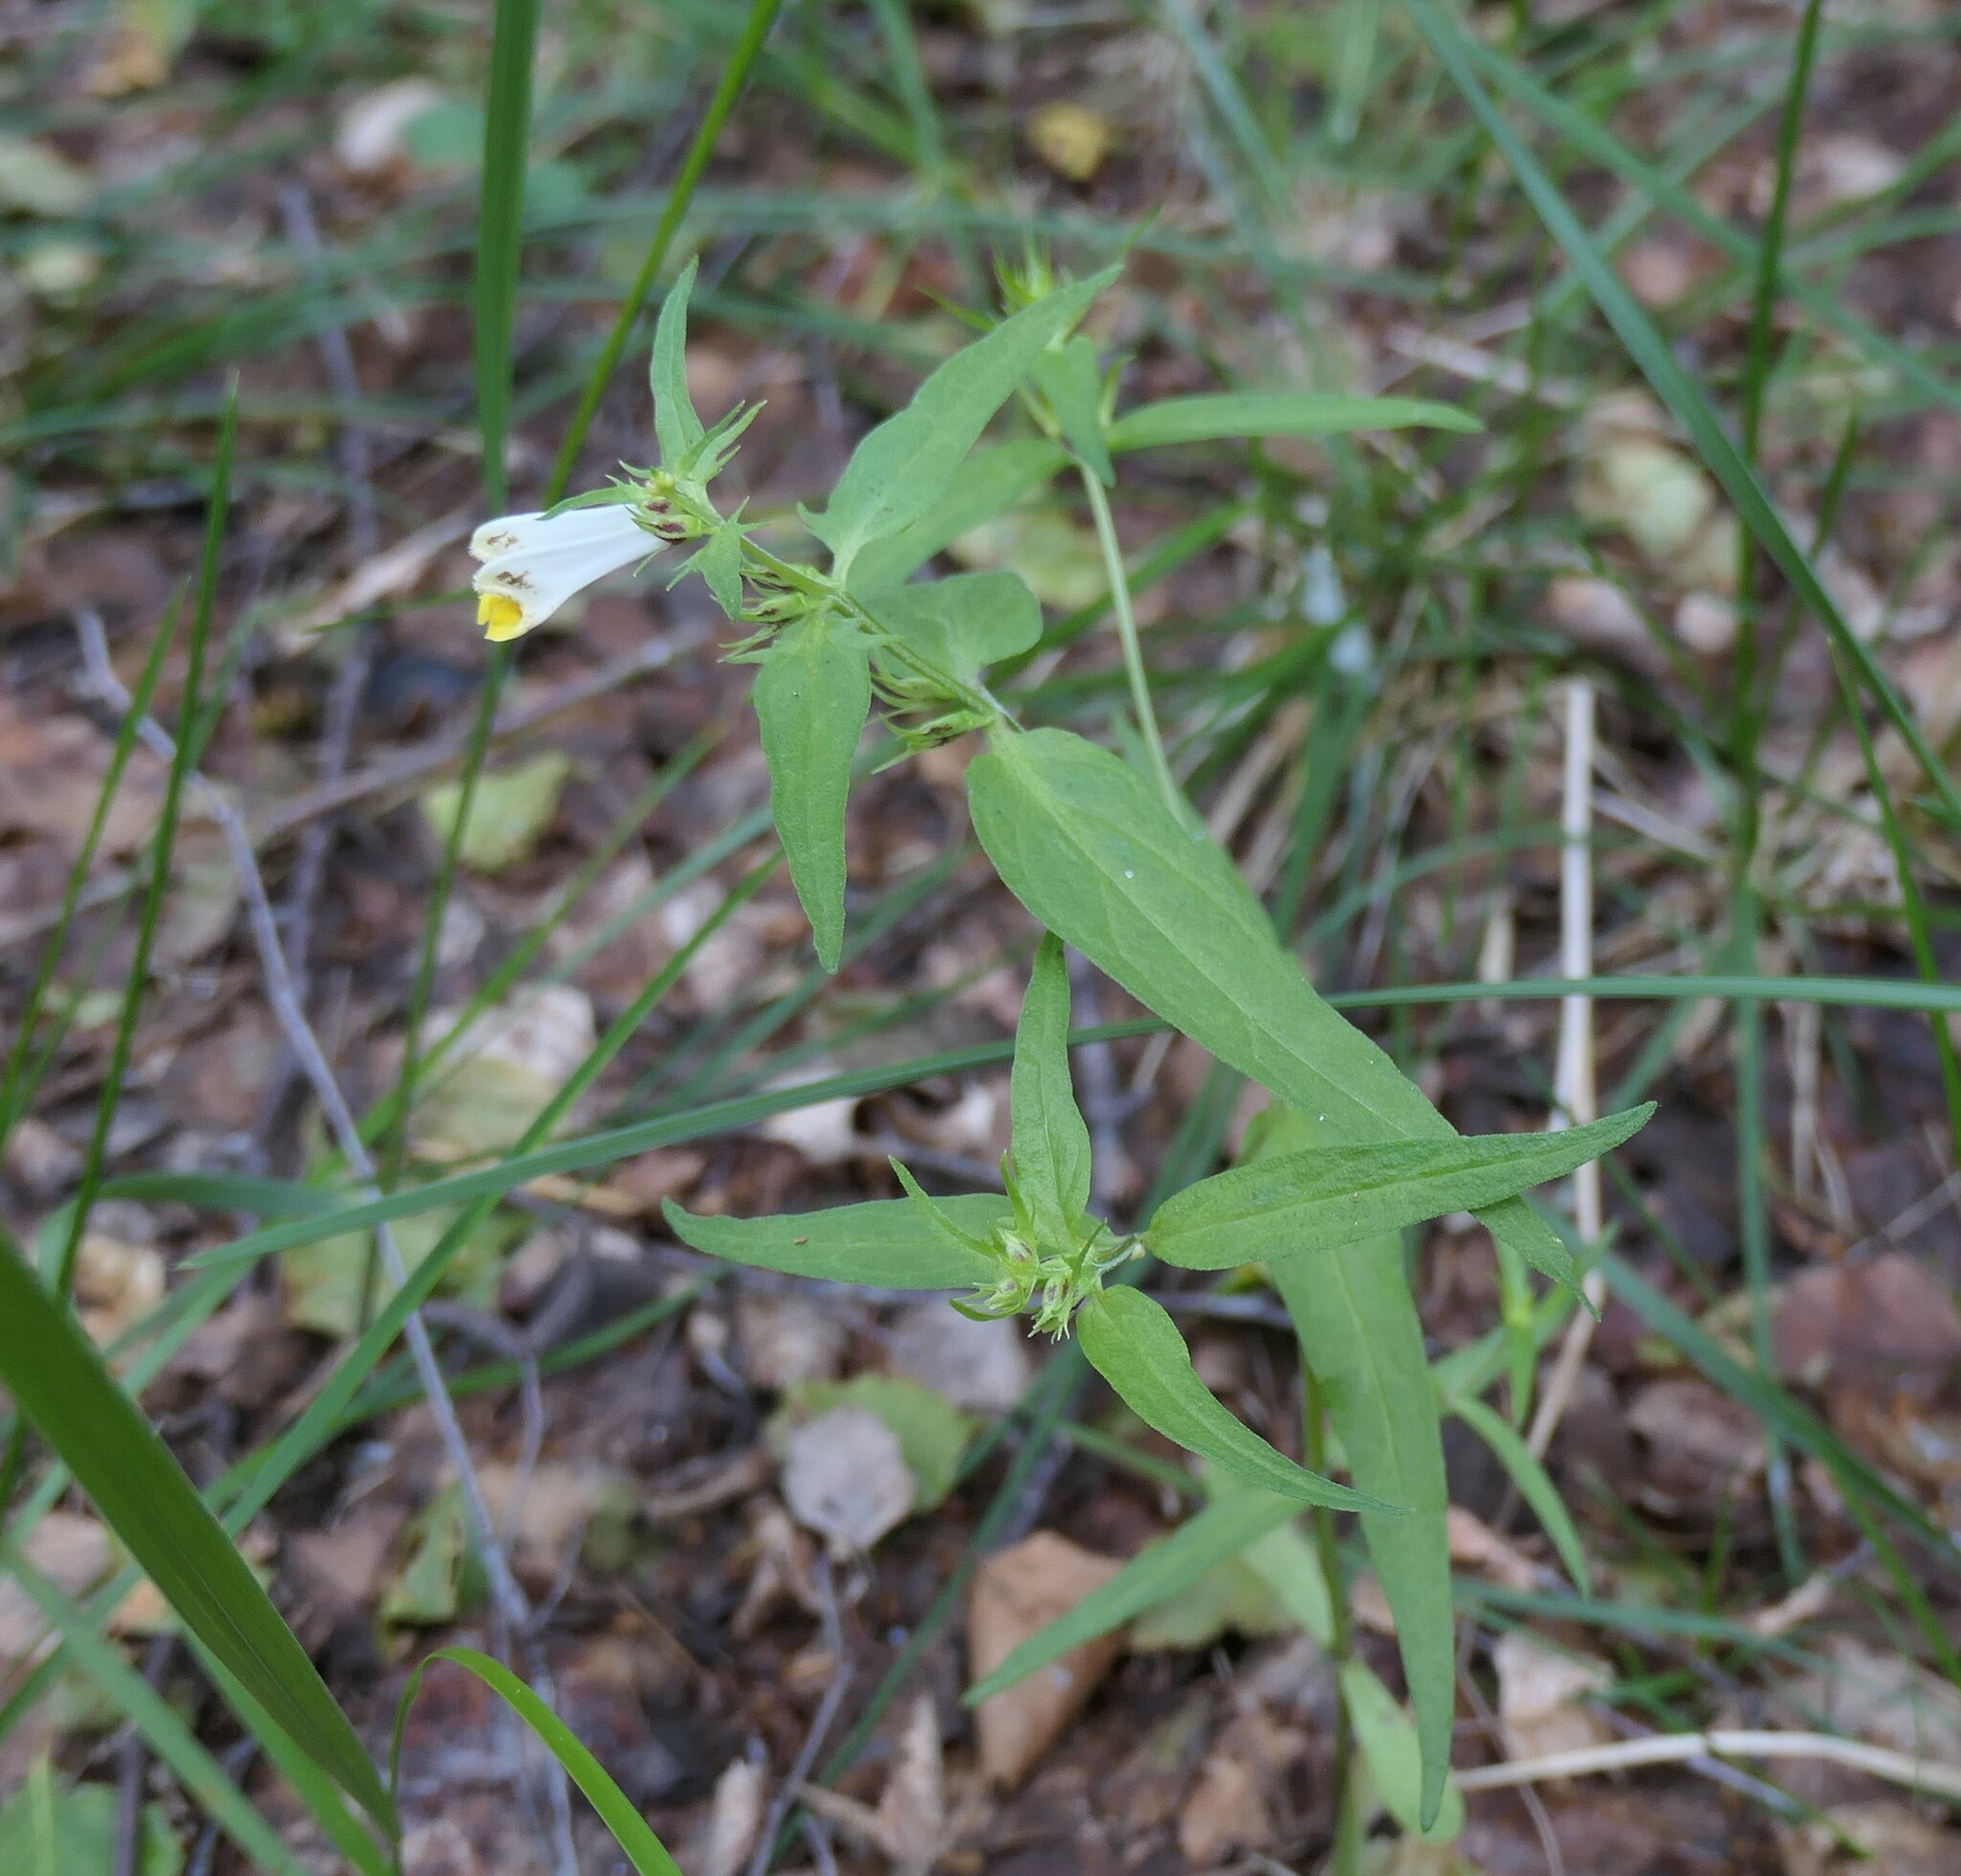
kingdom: Plantae
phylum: Tracheophyta
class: Magnoliopsida
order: Lamiales
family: Orobanchaceae
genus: Melampyrum
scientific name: Melampyrum pratense
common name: Common cow-wheat
